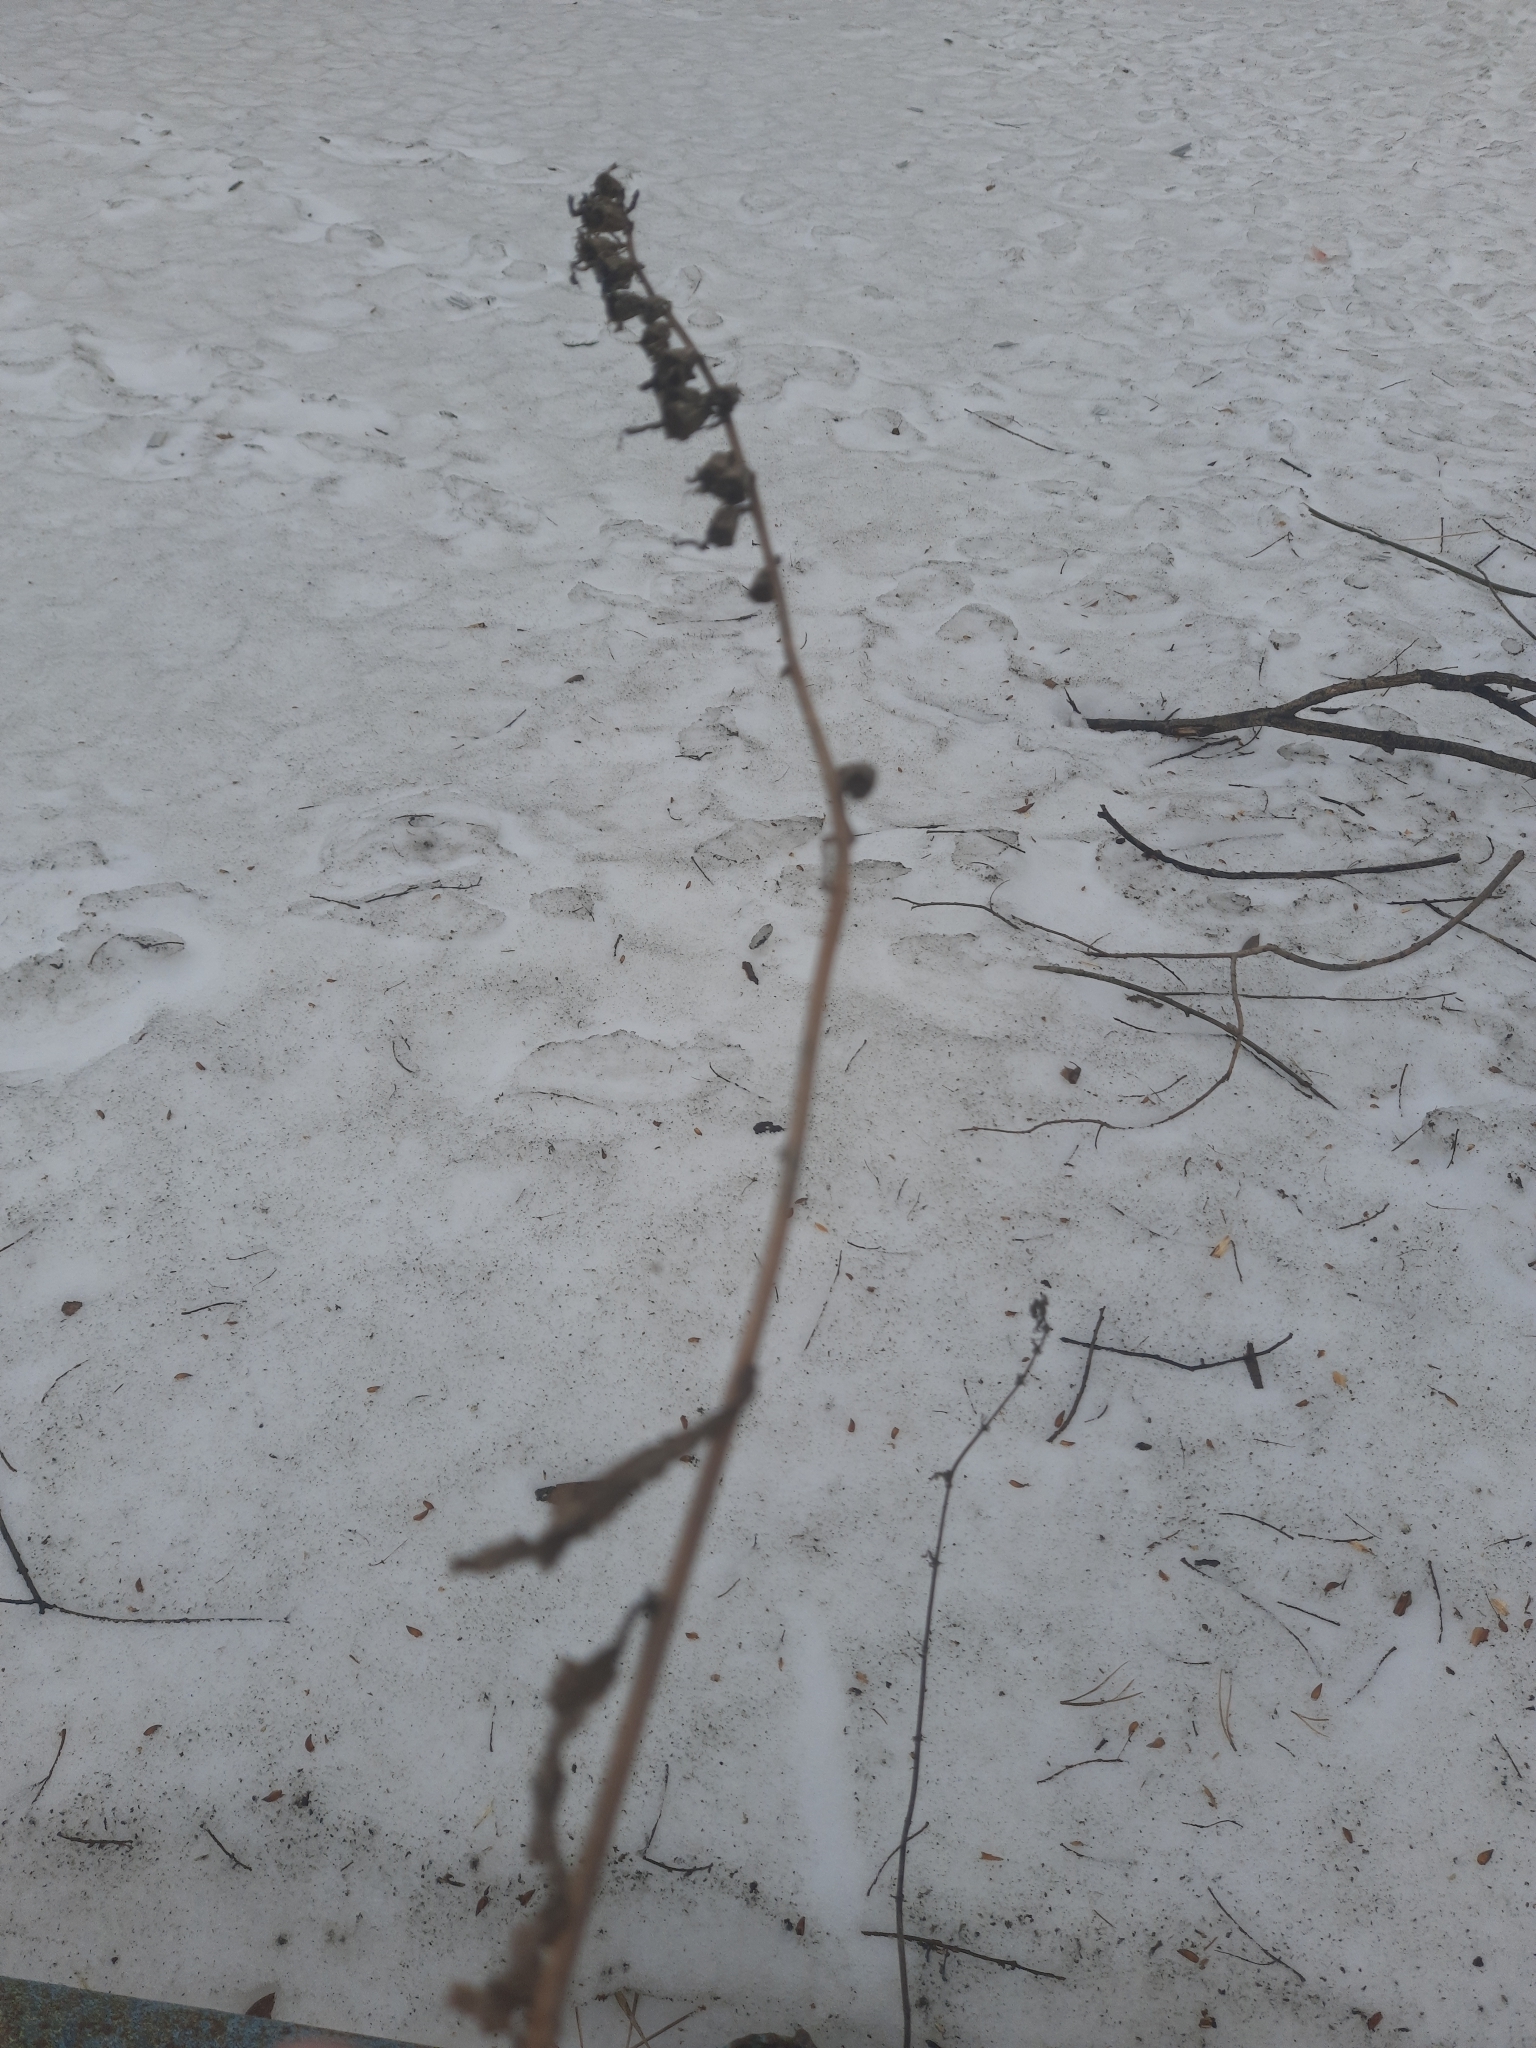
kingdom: Plantae
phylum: Tracheophyta
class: Magnoliopsida
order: Asterales
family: Campanulaceae
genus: Campanula
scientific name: Campanula rapunculoides
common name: Creeping bellflower
